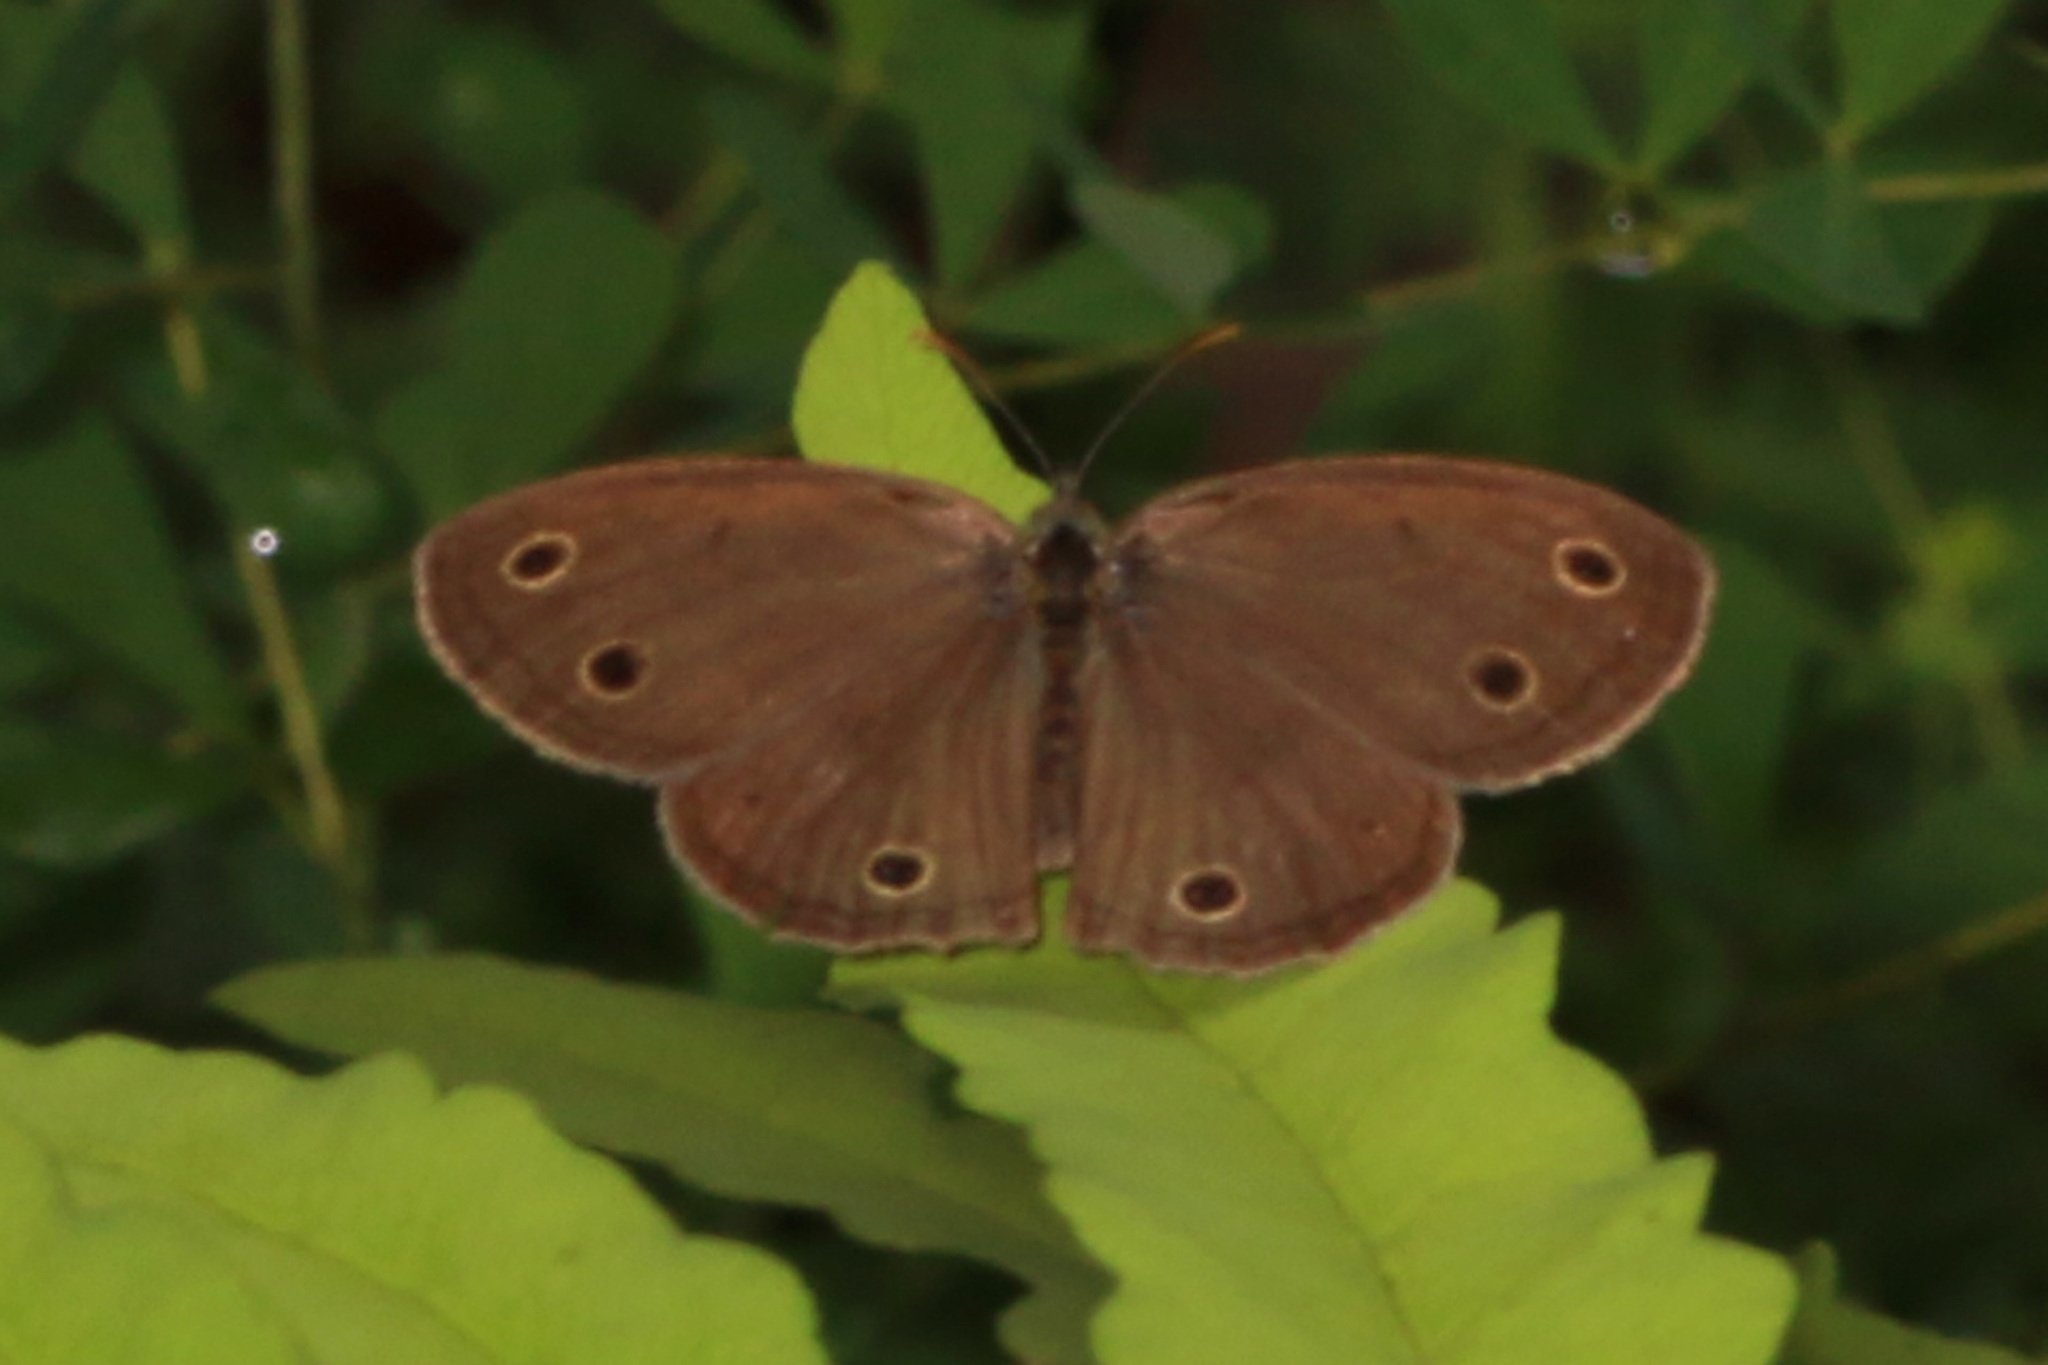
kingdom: Animalia
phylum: Arthropoda
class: Insecta
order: Lepidoptera
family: Nymphalidae
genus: Euptychia
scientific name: Euptychia cymela
